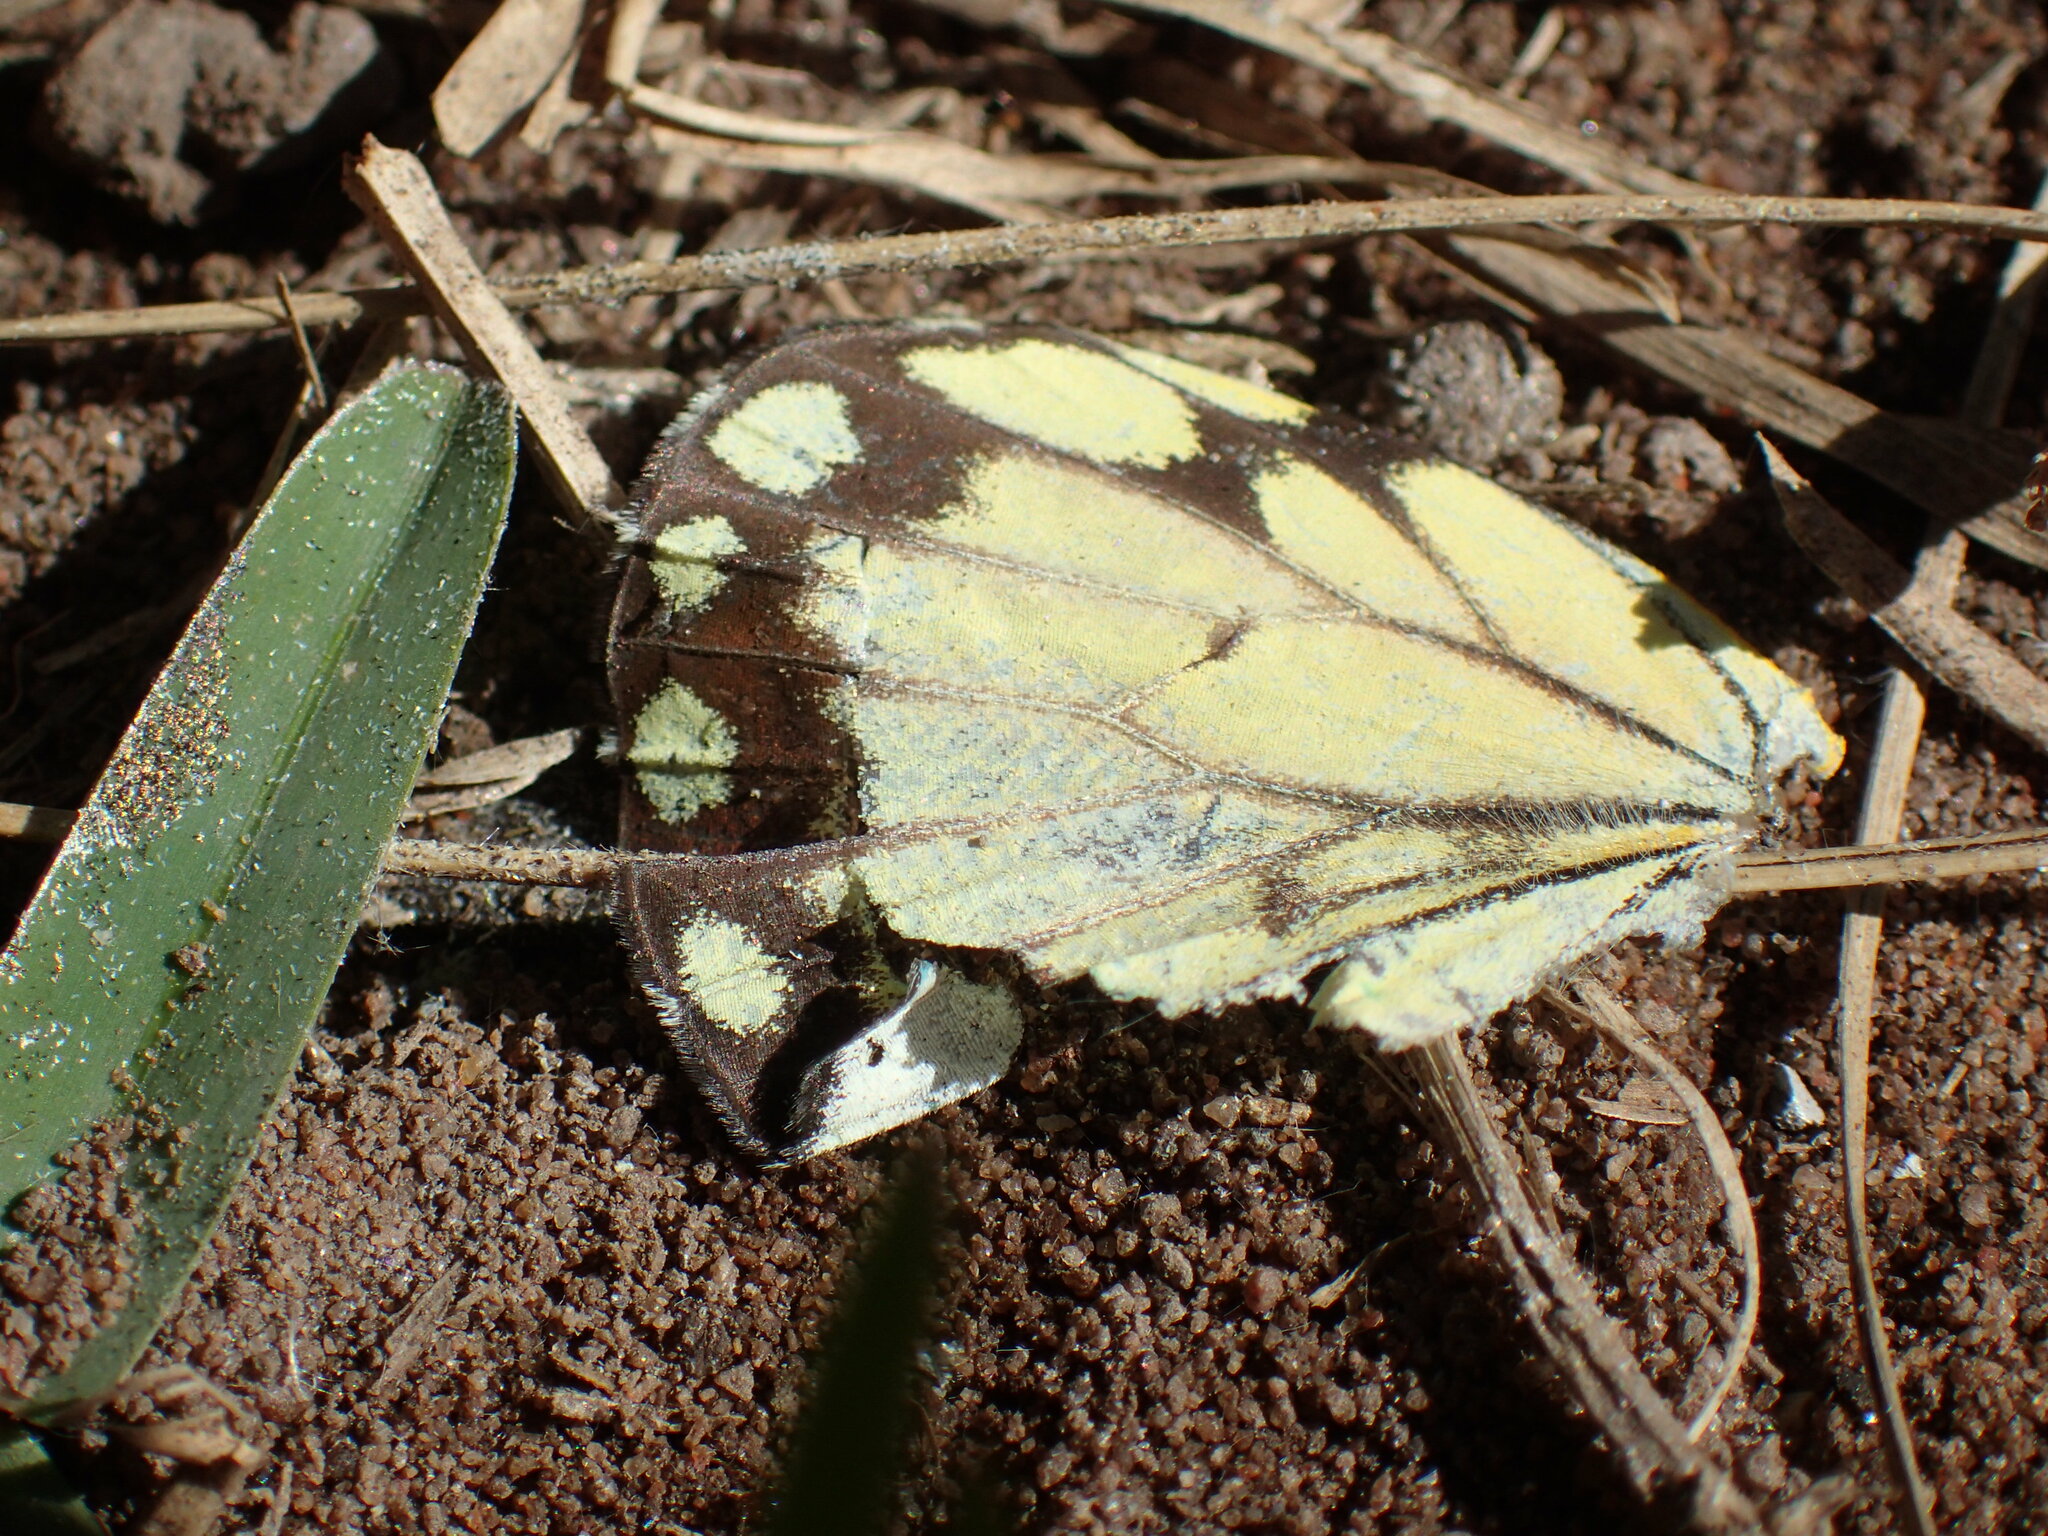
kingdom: Animalia
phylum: Arthropoda
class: Insecta
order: Lepidoptera
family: Pieridae
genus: Belenois
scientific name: Belenois creona
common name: African caper white
